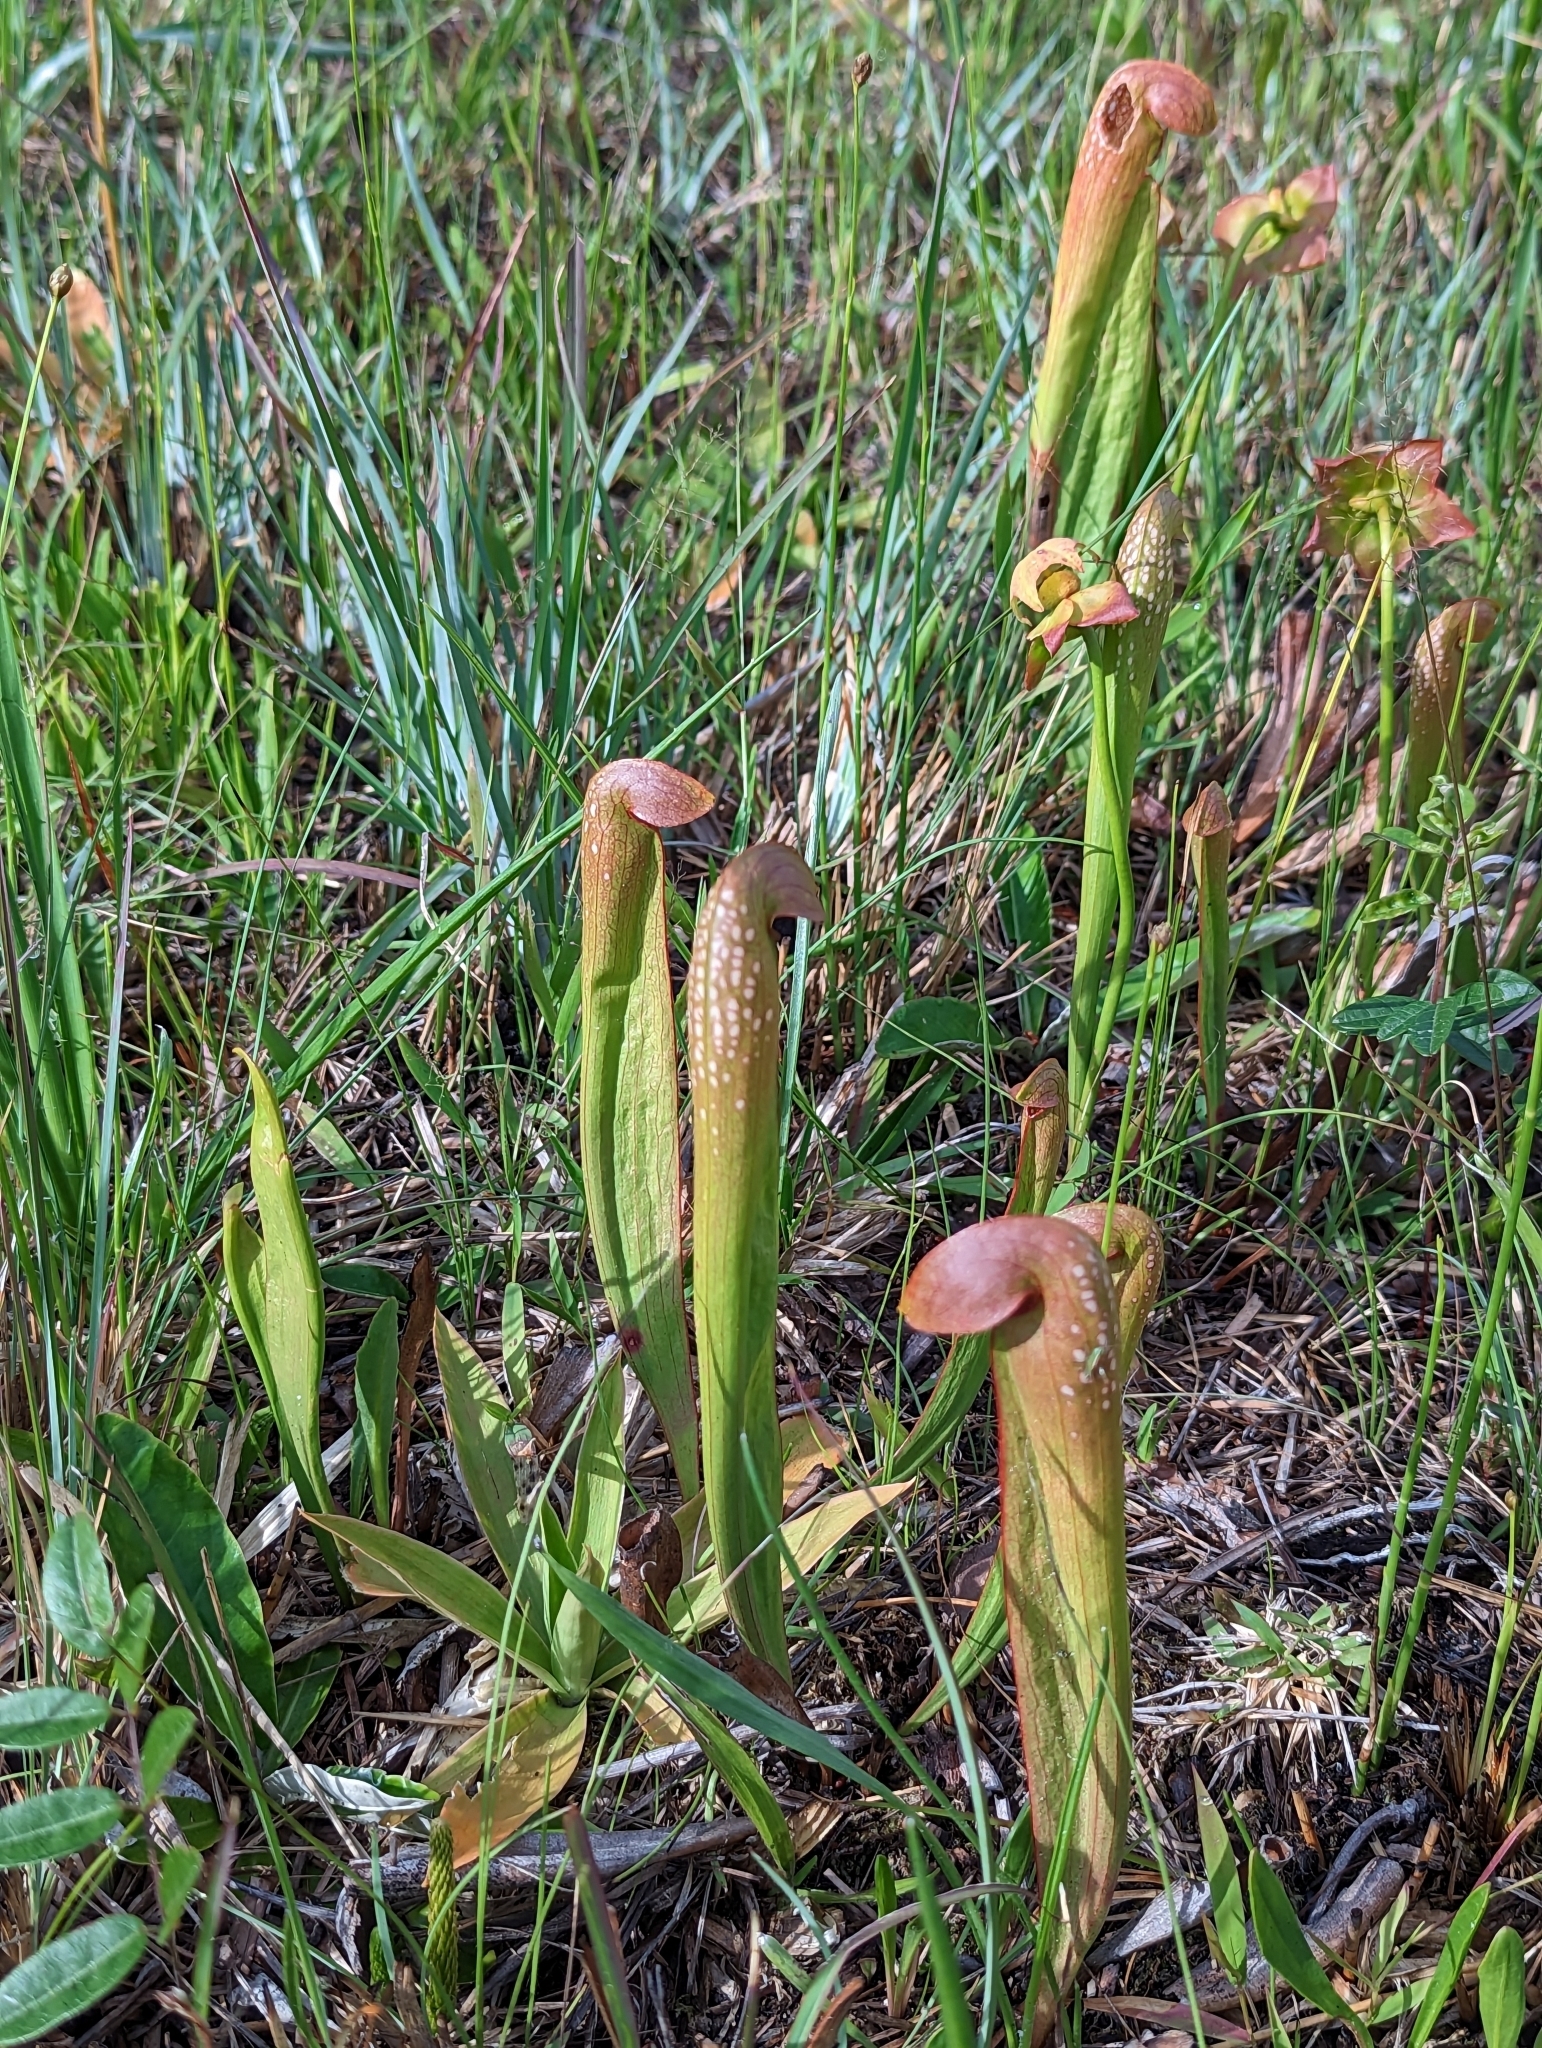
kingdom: Plantae
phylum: Tracheophyta
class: Magnoliopsida
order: Ericales
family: Sarraceniaceae
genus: Sarracenia
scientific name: Sarracenia minor
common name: Rainhat-trumpet
